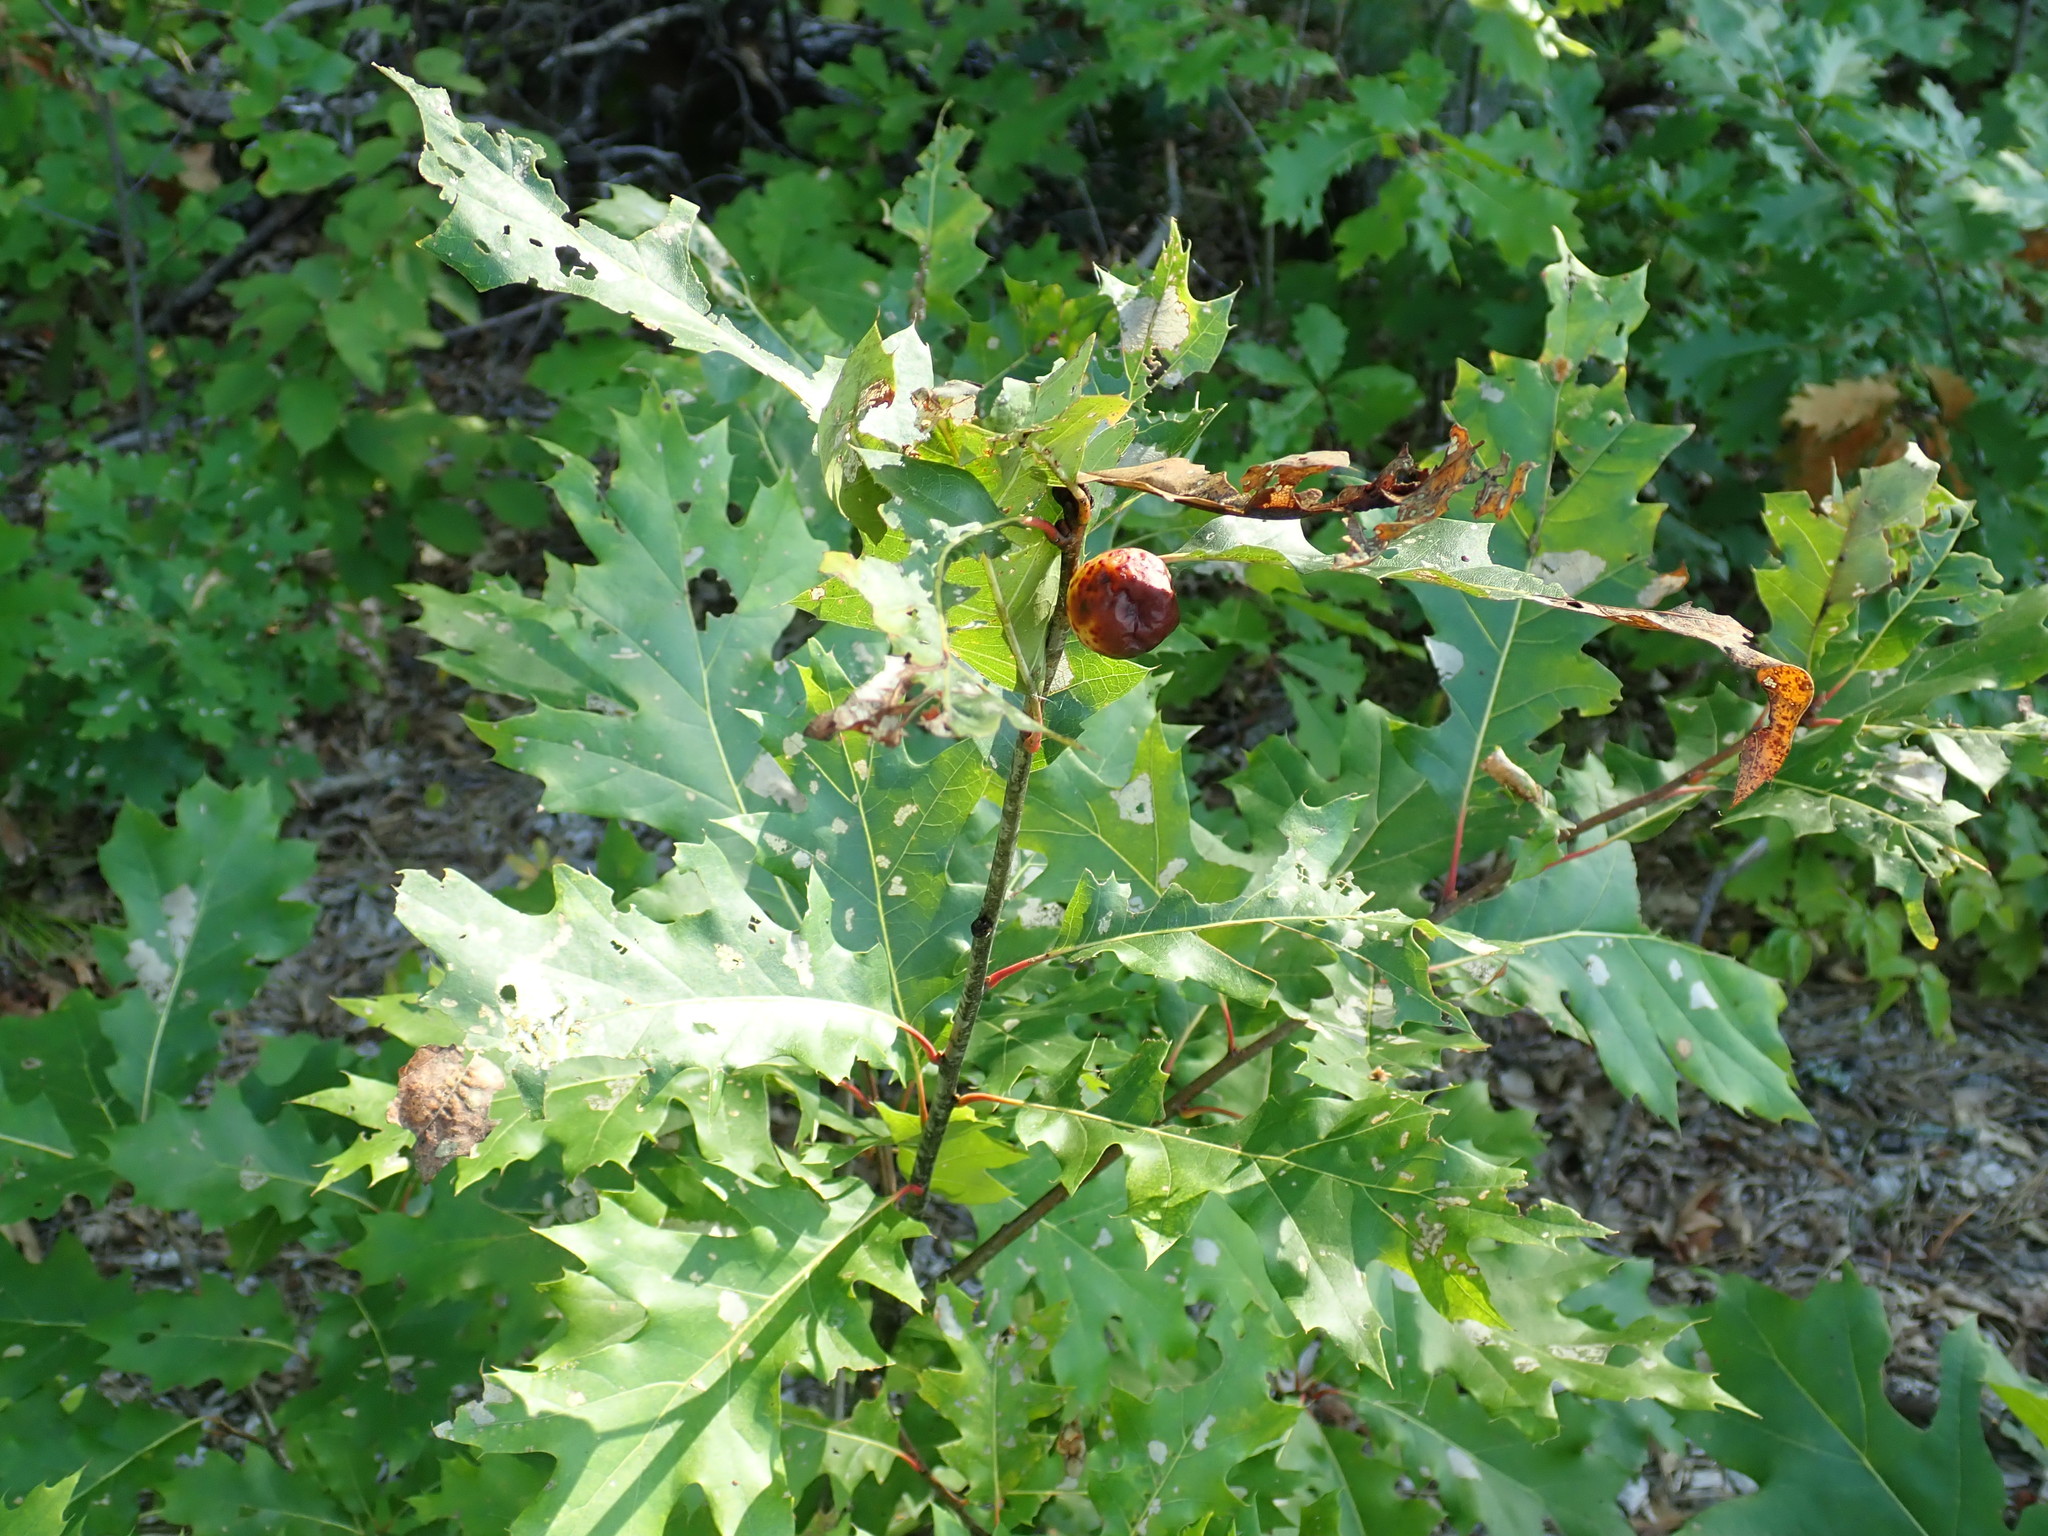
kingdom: Animalia
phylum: Arthropoda
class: Insecta
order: Hymenoptera
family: Cynipidae
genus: Amphibolips
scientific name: Amphibolips
